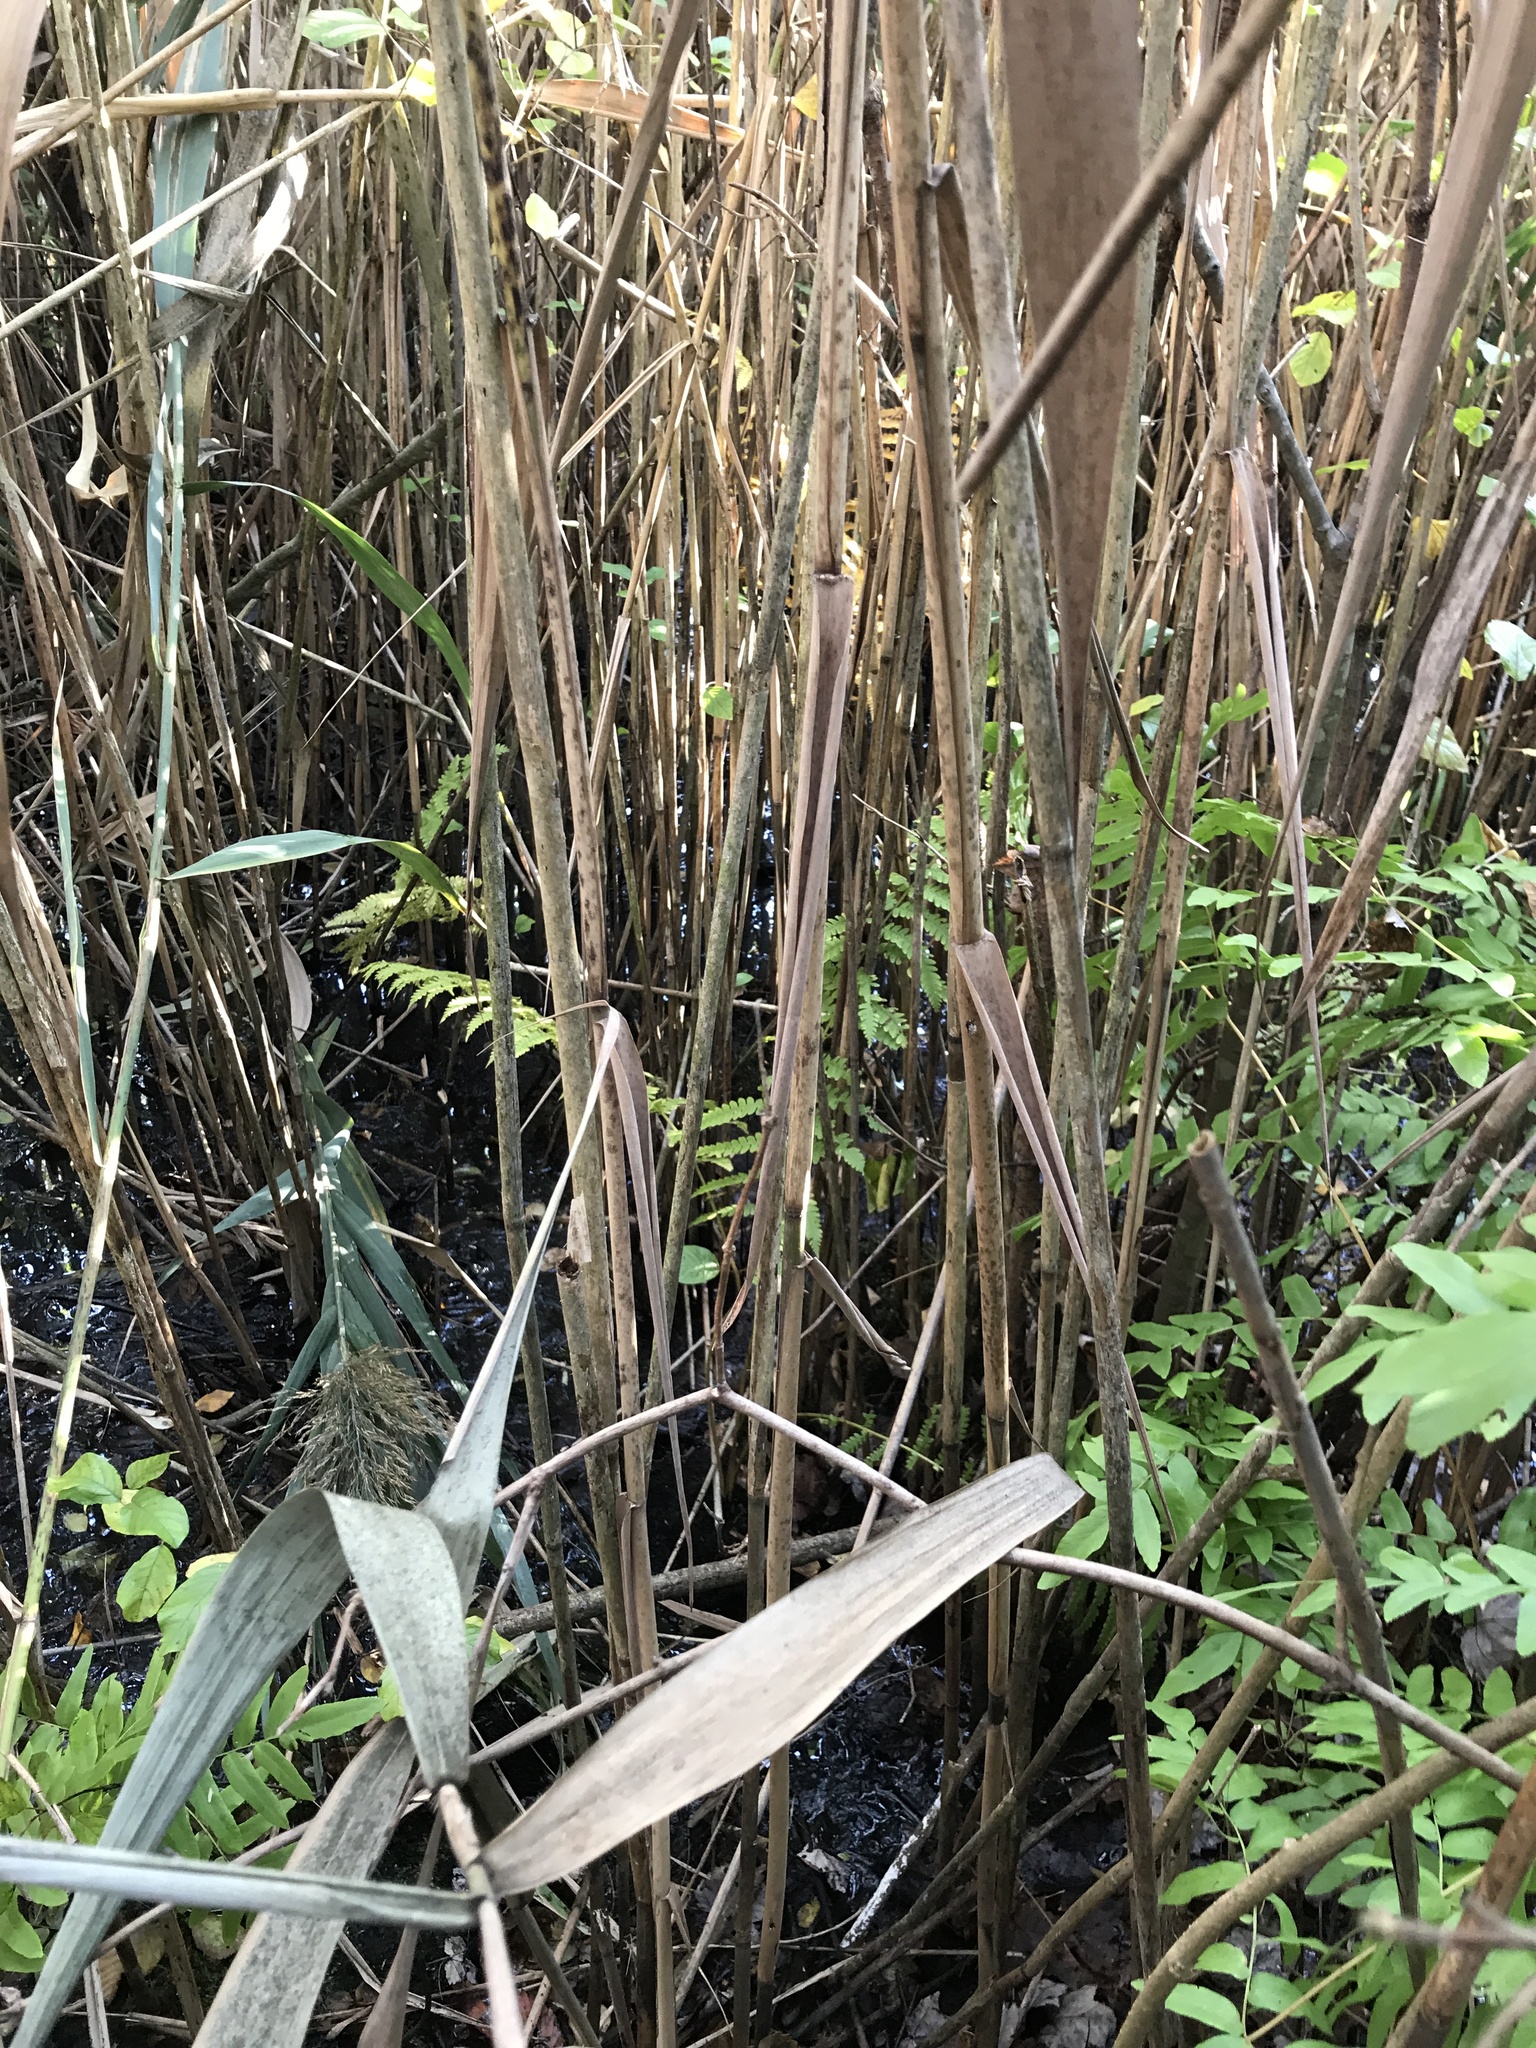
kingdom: Plantae
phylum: Tracheophyta
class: Polypodiopsida
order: Osmundales
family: Osmundaceae
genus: Osmundastrum
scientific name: Osmundastrum cinnamomeum
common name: Cinnamon fern
